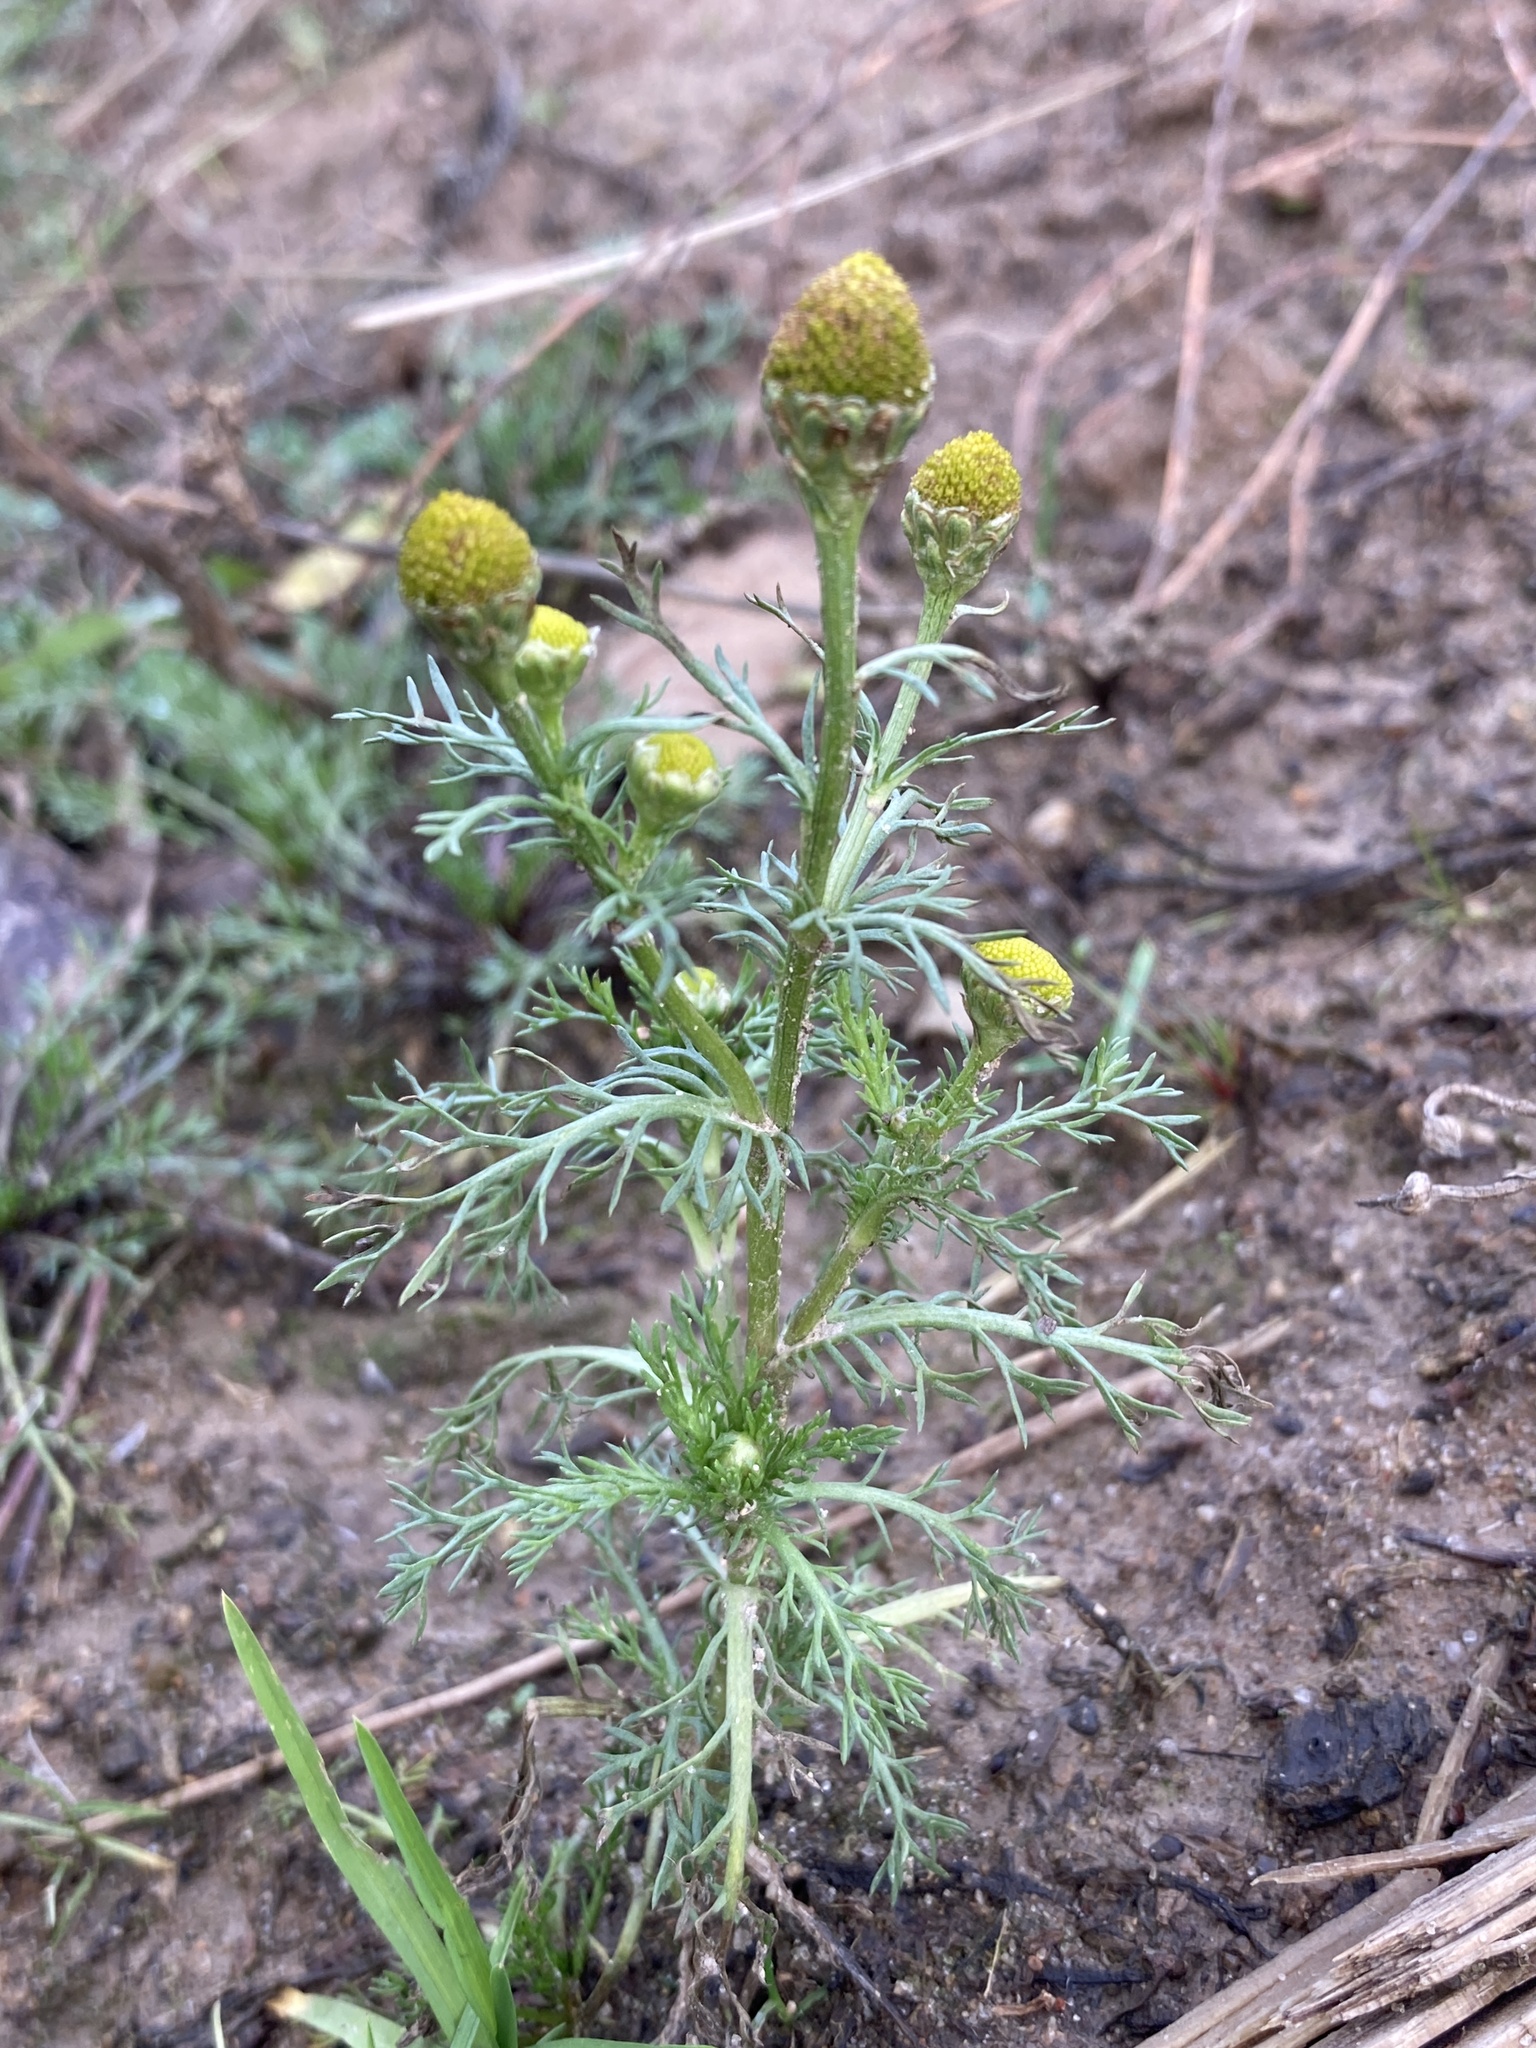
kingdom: Plantae
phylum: Tracheophyta
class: Magnoliopsida
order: Asterales
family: Asteraceae
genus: Matricaria
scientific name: Matricaria discoidea
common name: Disc mayweed
